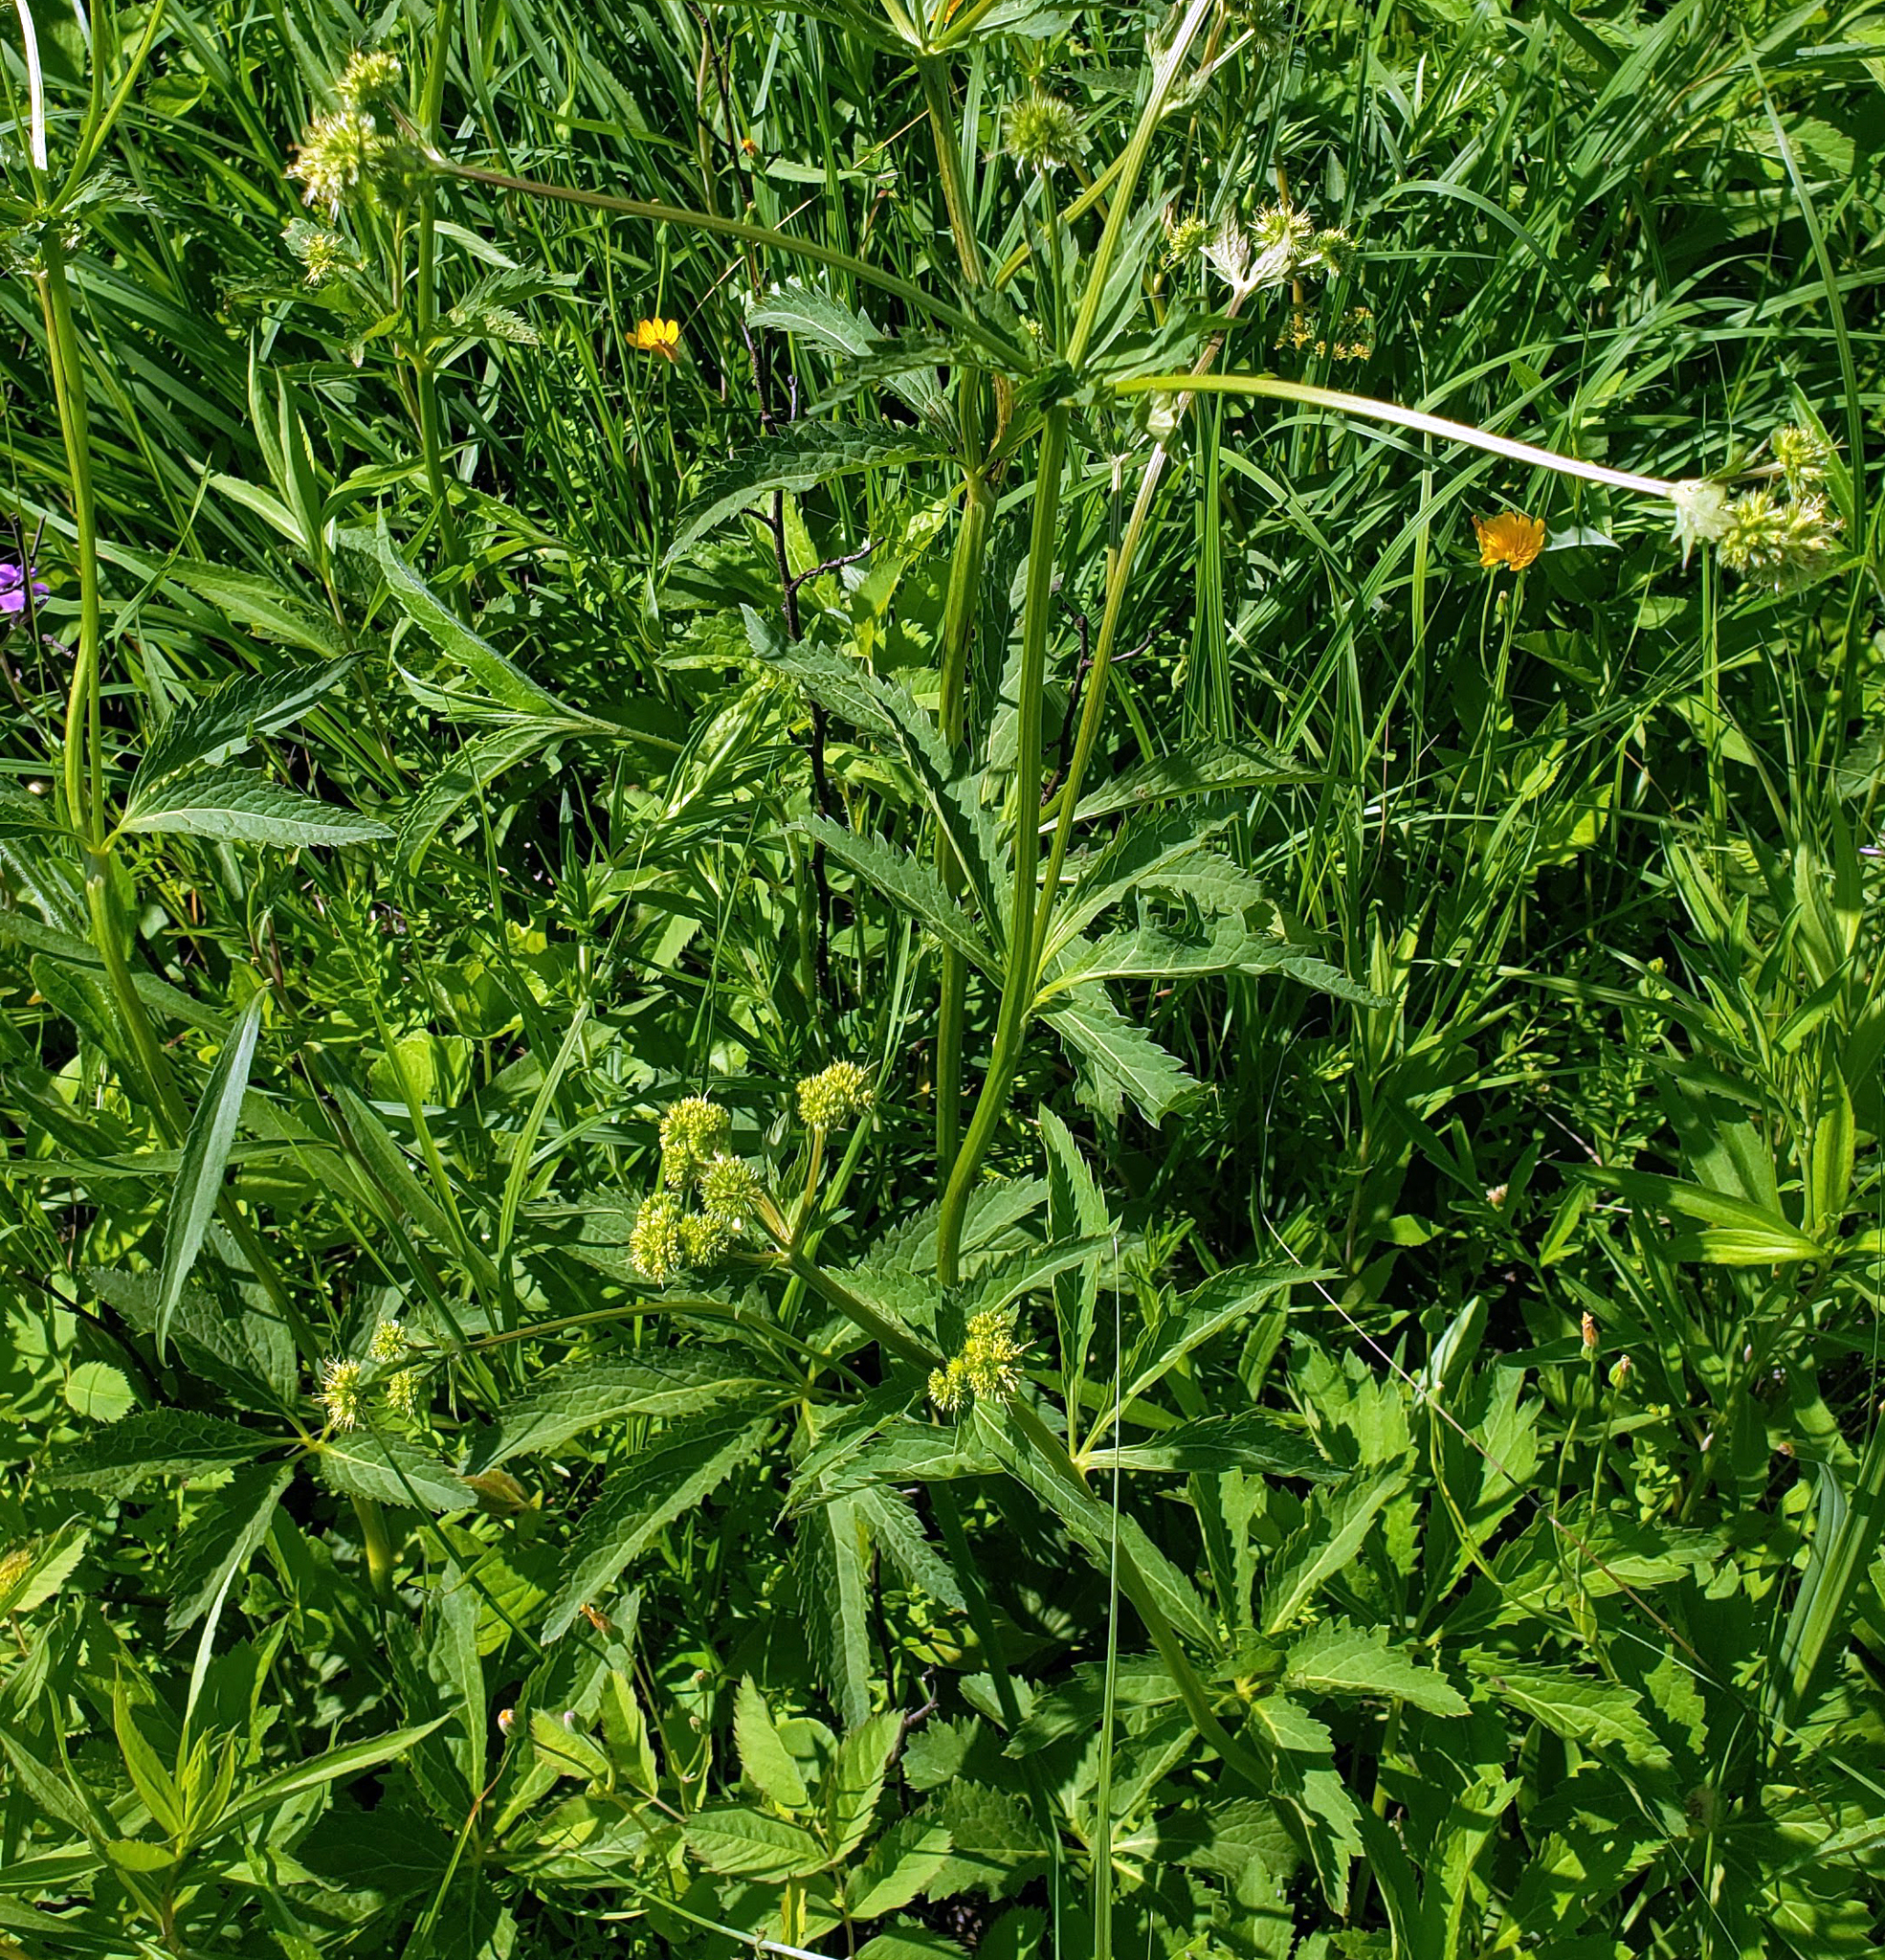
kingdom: Plantae
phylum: Tracheophyta
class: Magnoliopsida
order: Apiales
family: Apiaceae
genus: Sanicula
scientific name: Sanicula marilandica
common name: Black snakeroot
